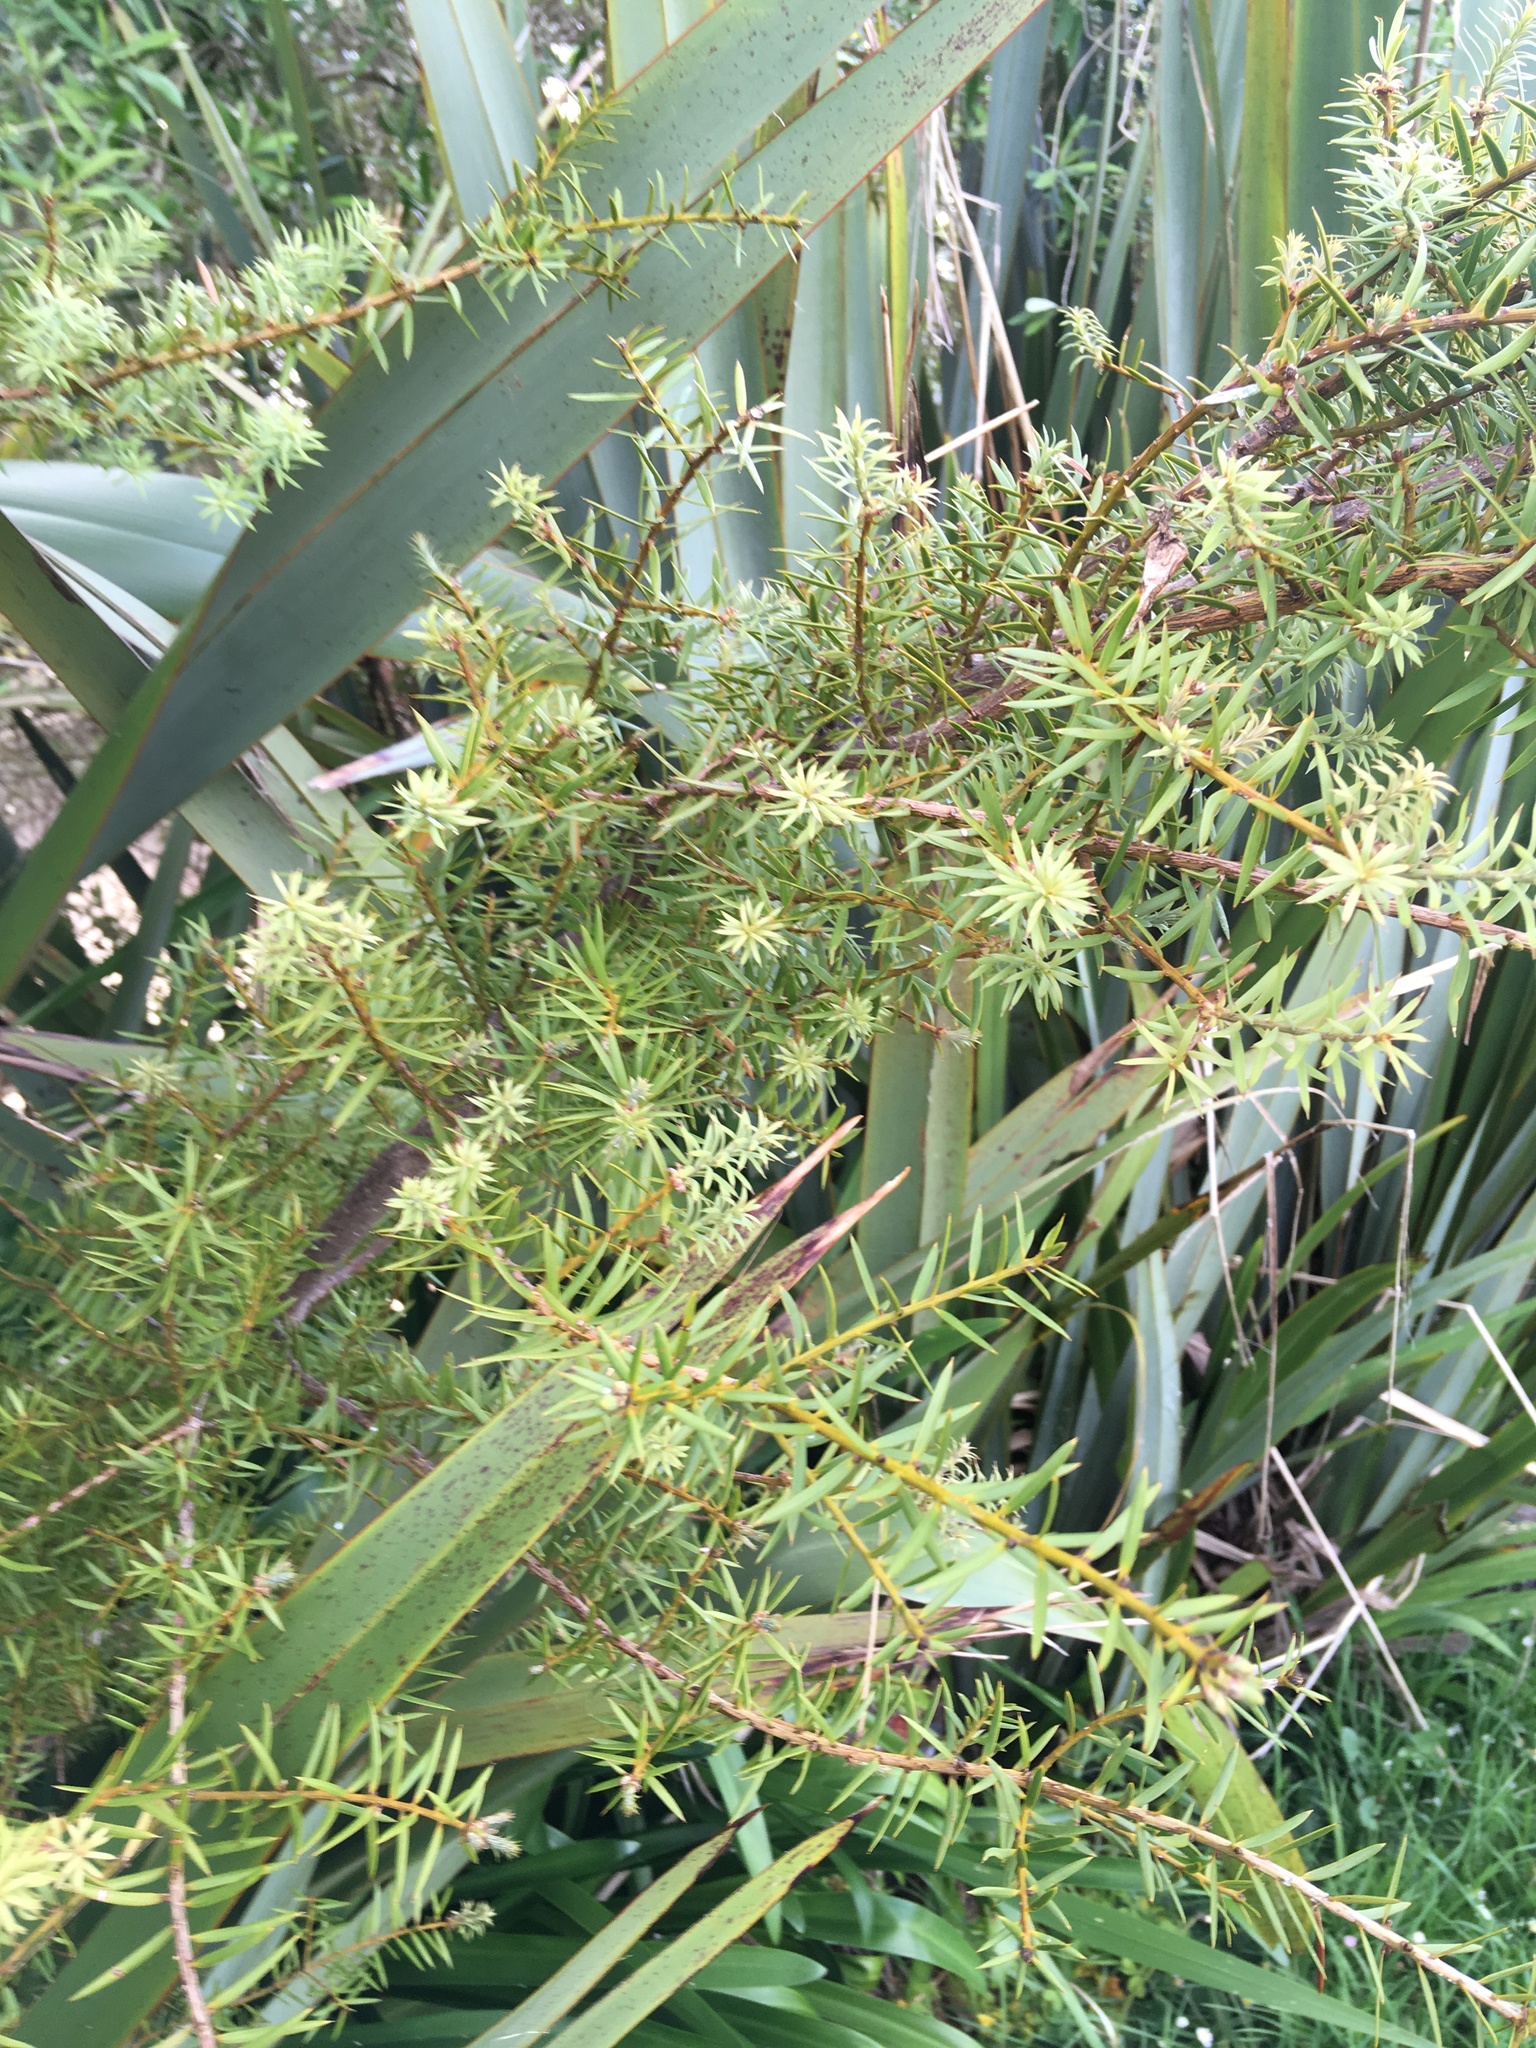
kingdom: Plantae
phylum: Tracheophyta
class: Pinopsida
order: Pinales
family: Podocarpaceae
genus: Podocarpus
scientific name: Podocarpus totara
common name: Totara
